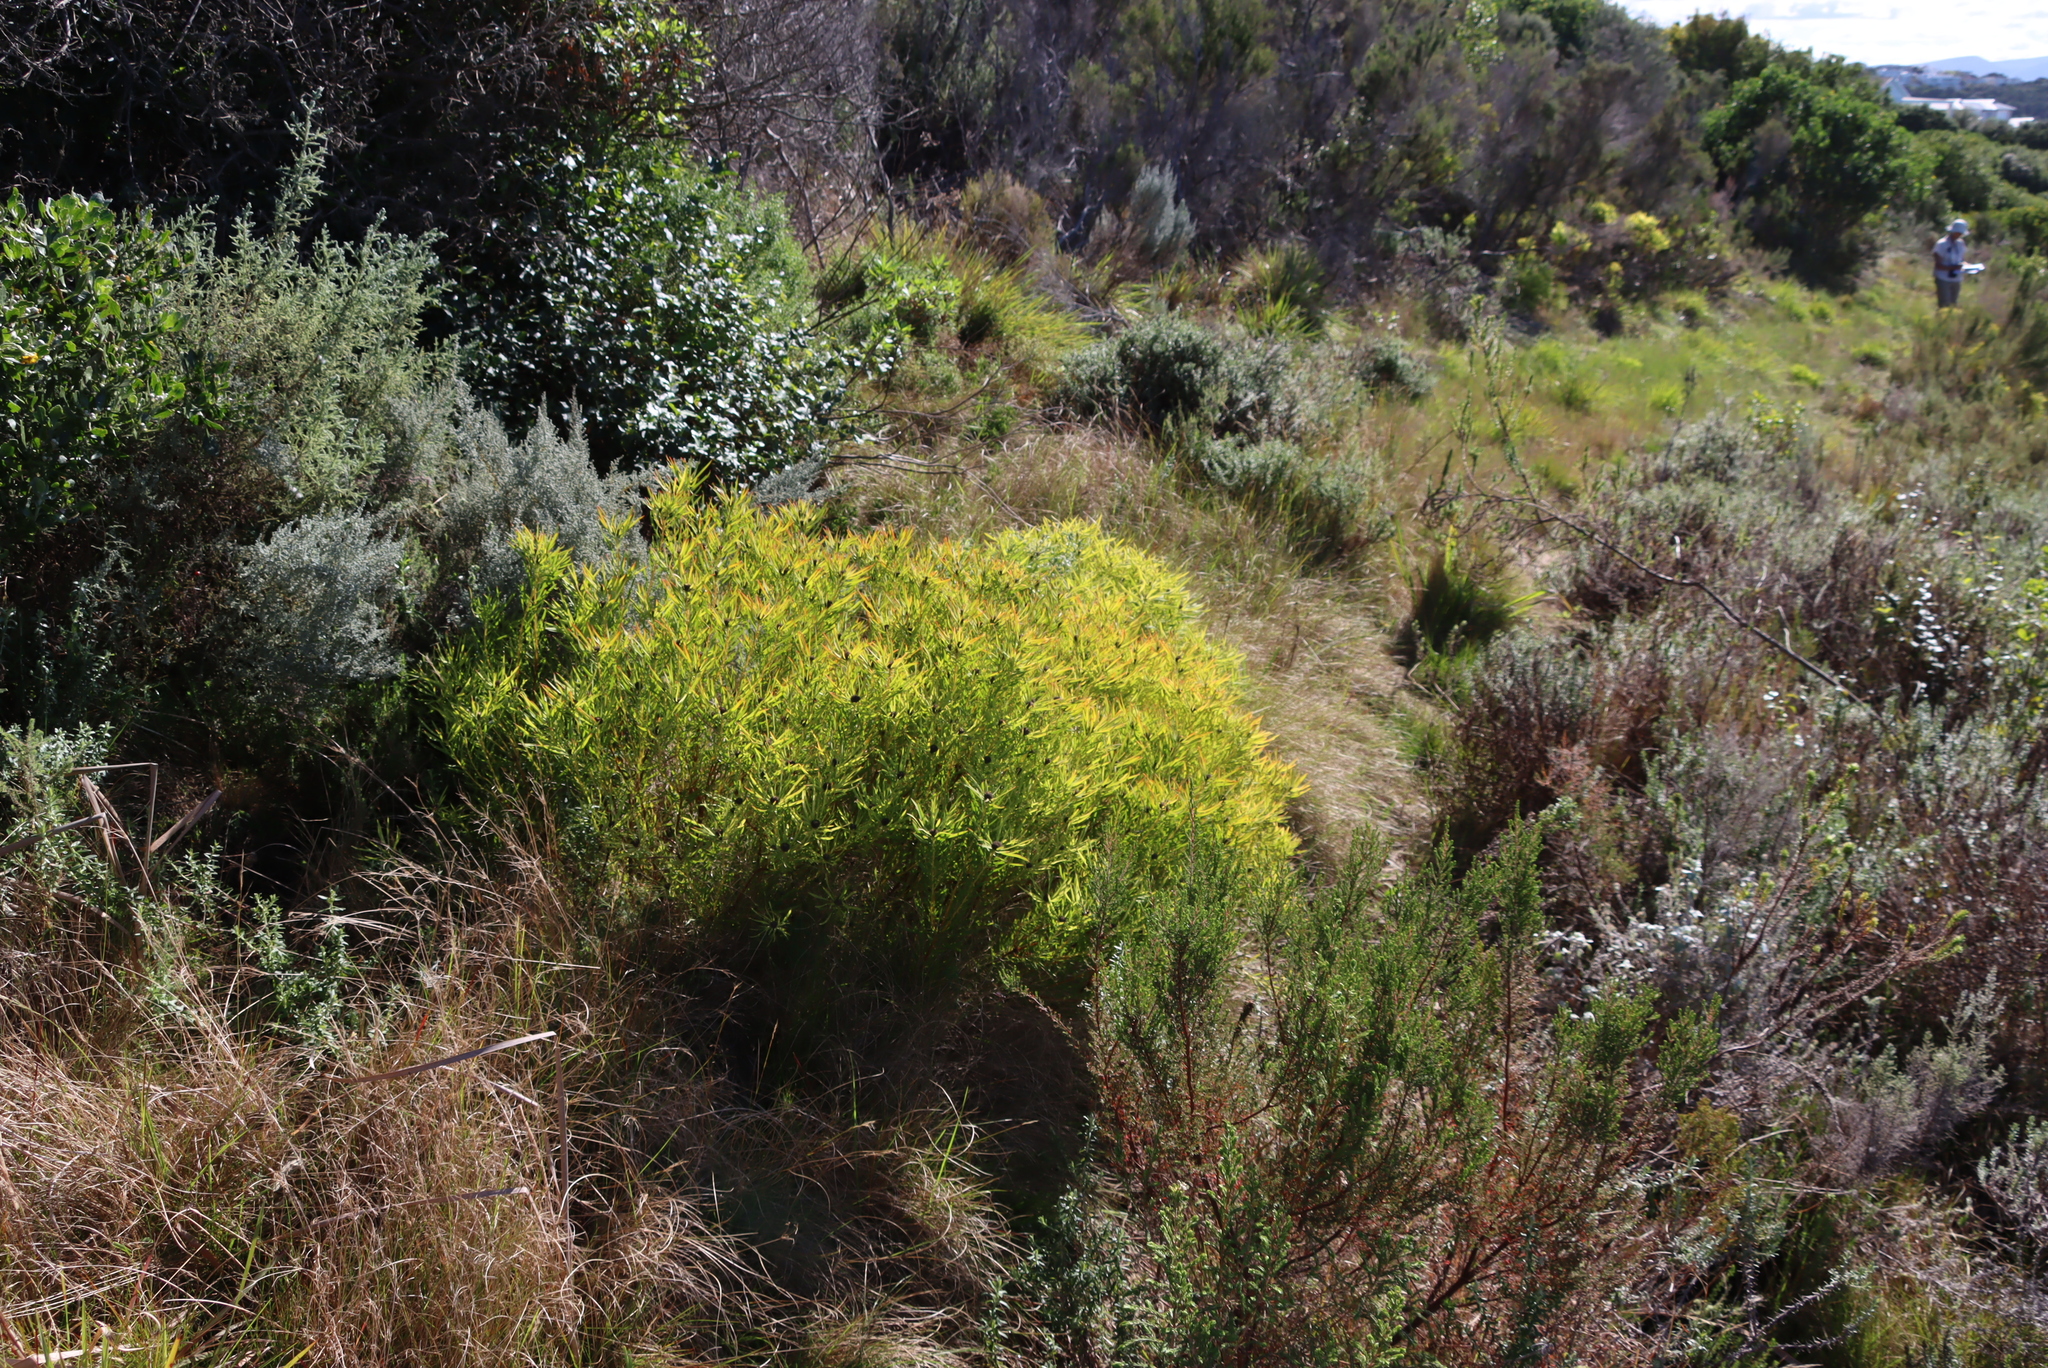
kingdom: Plantae
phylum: Tracheophyta
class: Magnoliopsida
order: Proteales
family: Proteaceae
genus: Leucadendron
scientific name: Leucadendron salignum
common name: Common sunshine conebush
